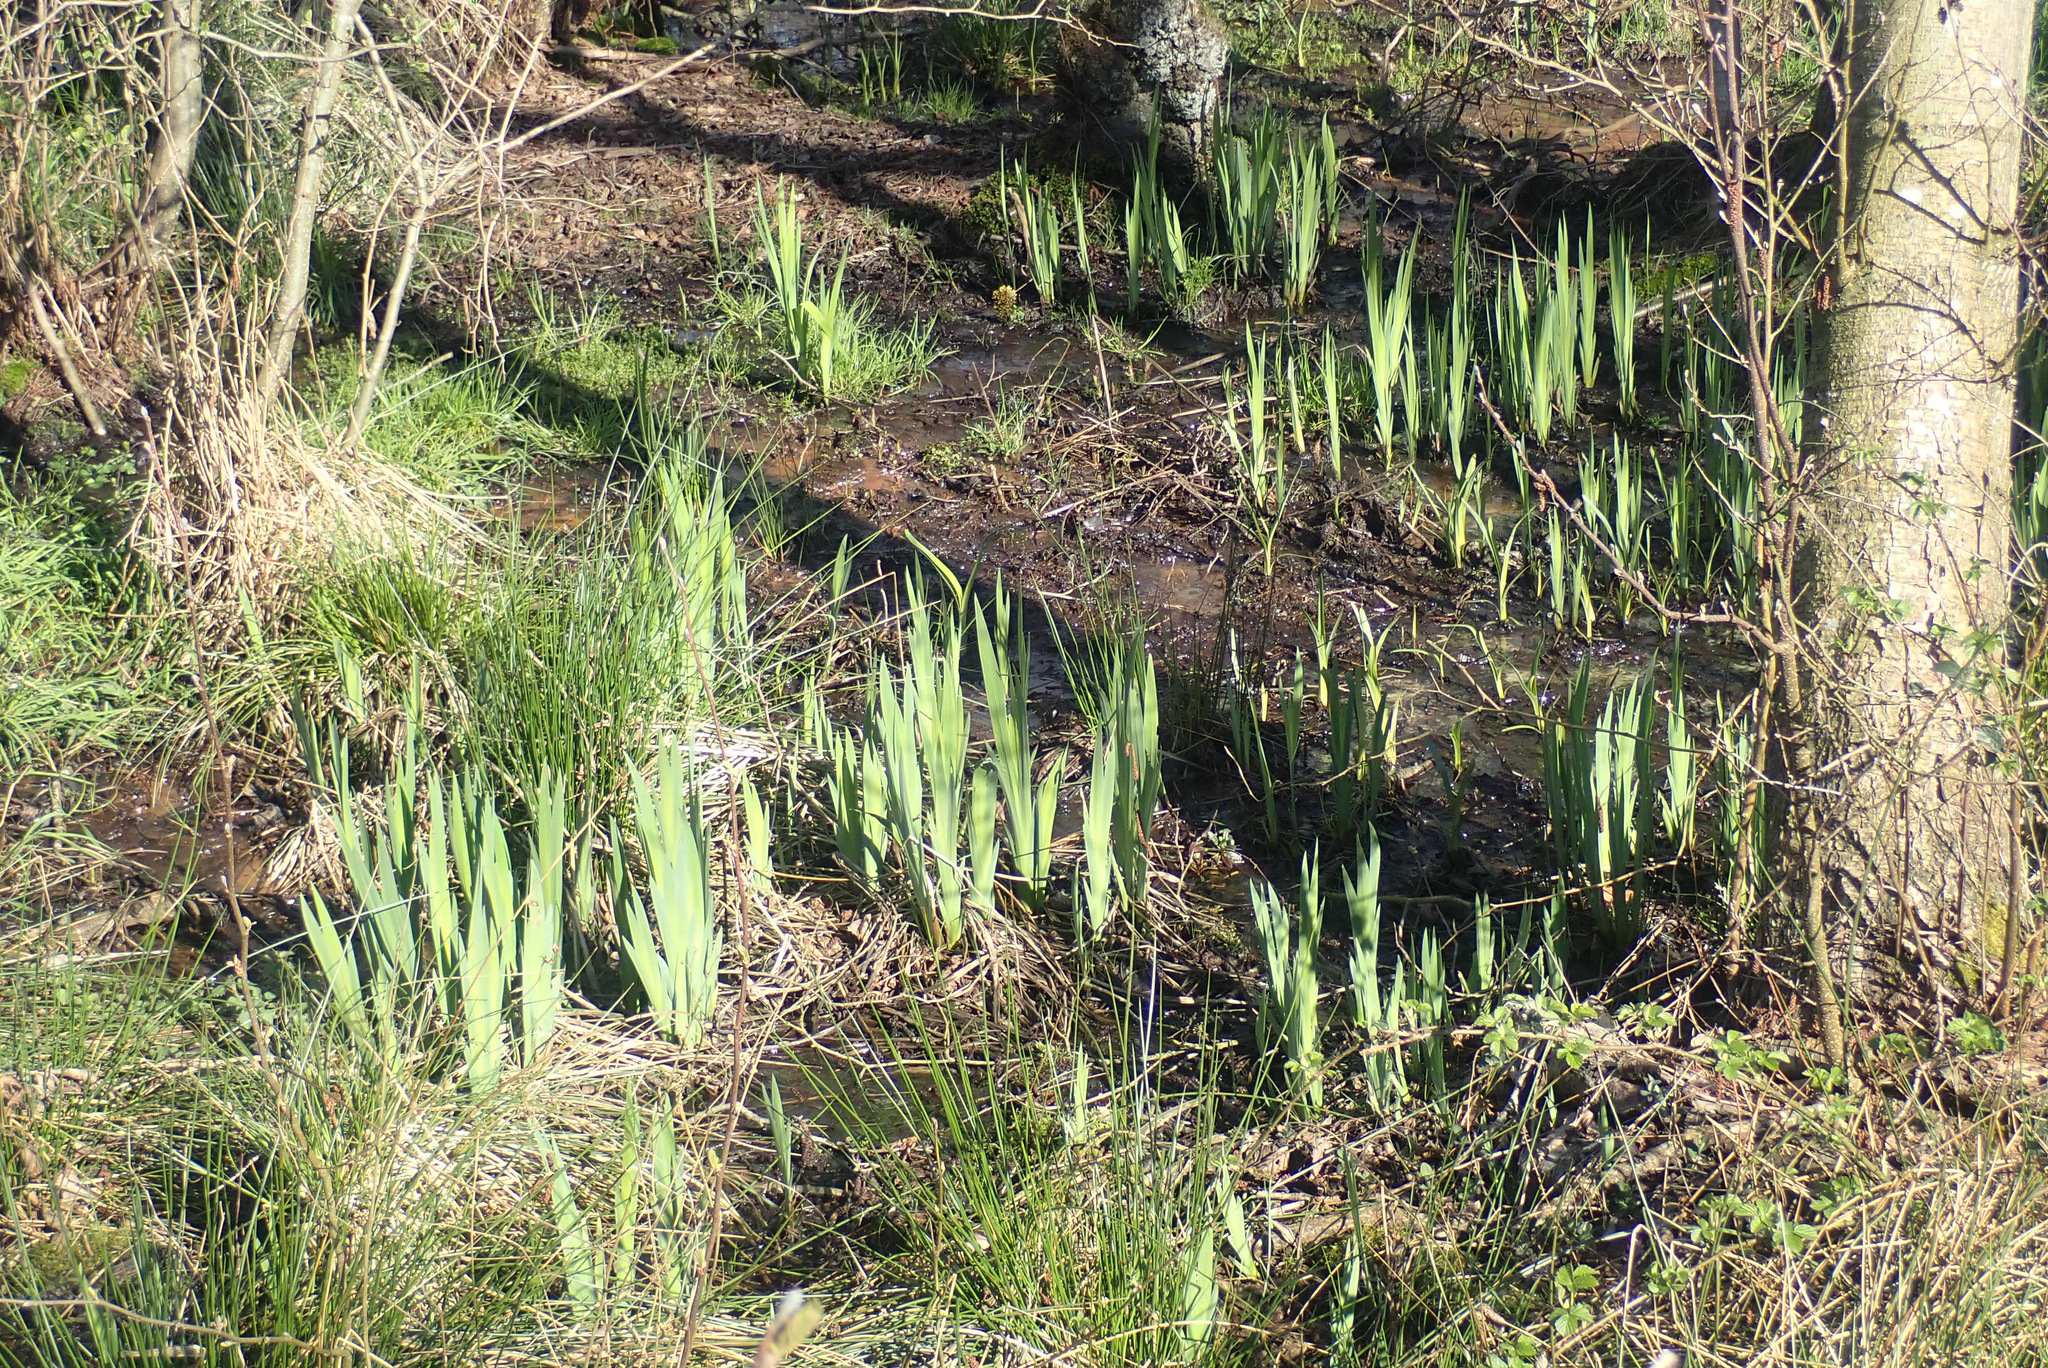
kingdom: Plantae
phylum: Tracheophyta
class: Liliopsida
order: Asparagales
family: Iridaceae
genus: Iris
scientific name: Iris pseudacorus
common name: Yellow flag
